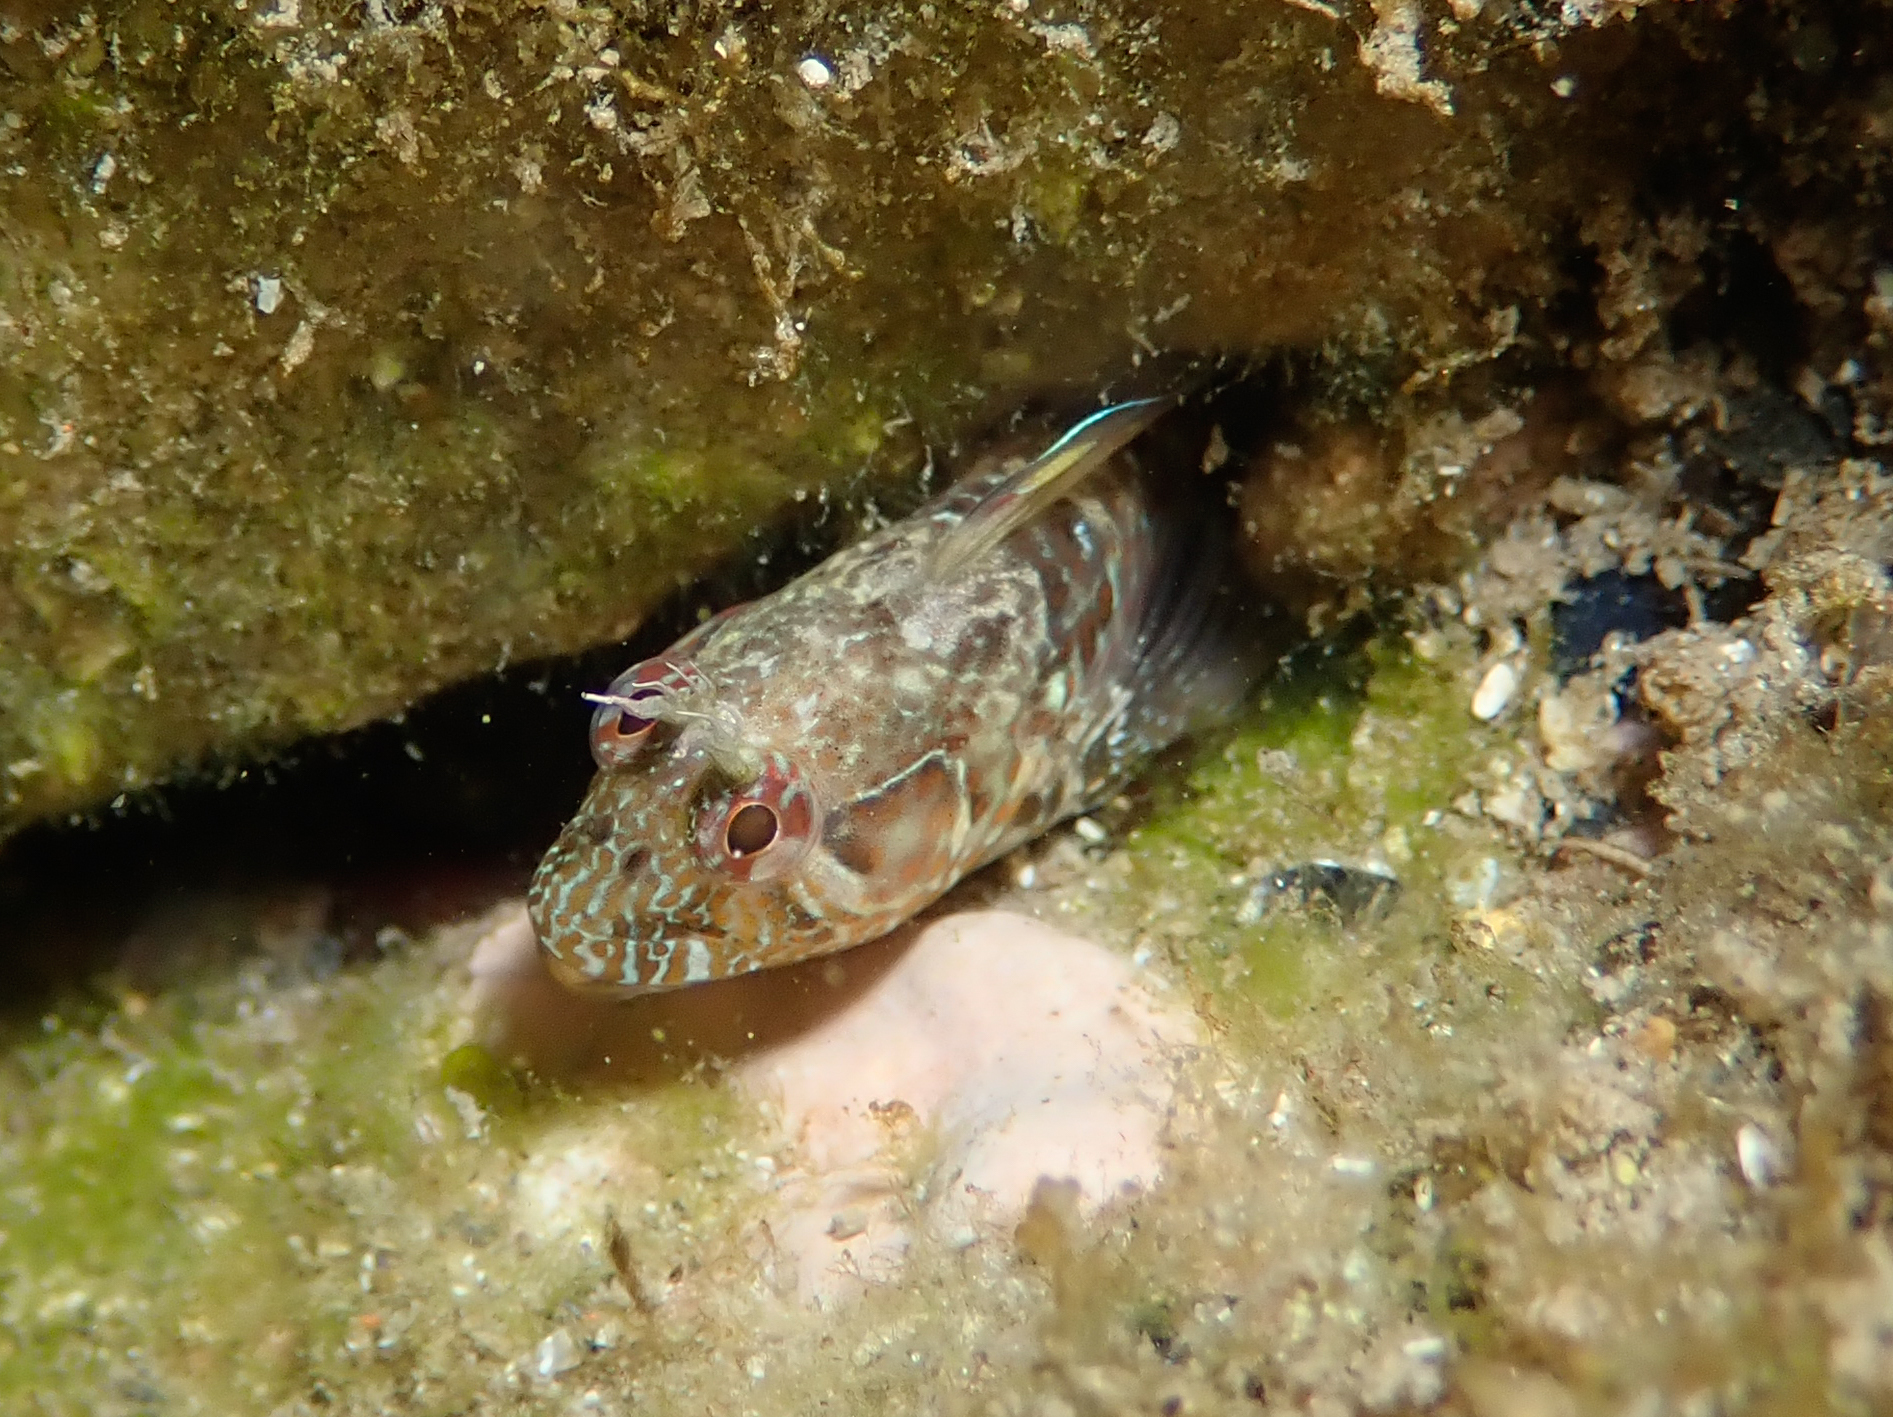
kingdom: Animalia
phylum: Chordata
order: Perciformes
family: Blenniidae
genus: Parablennius
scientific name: Parablennius incognitus
